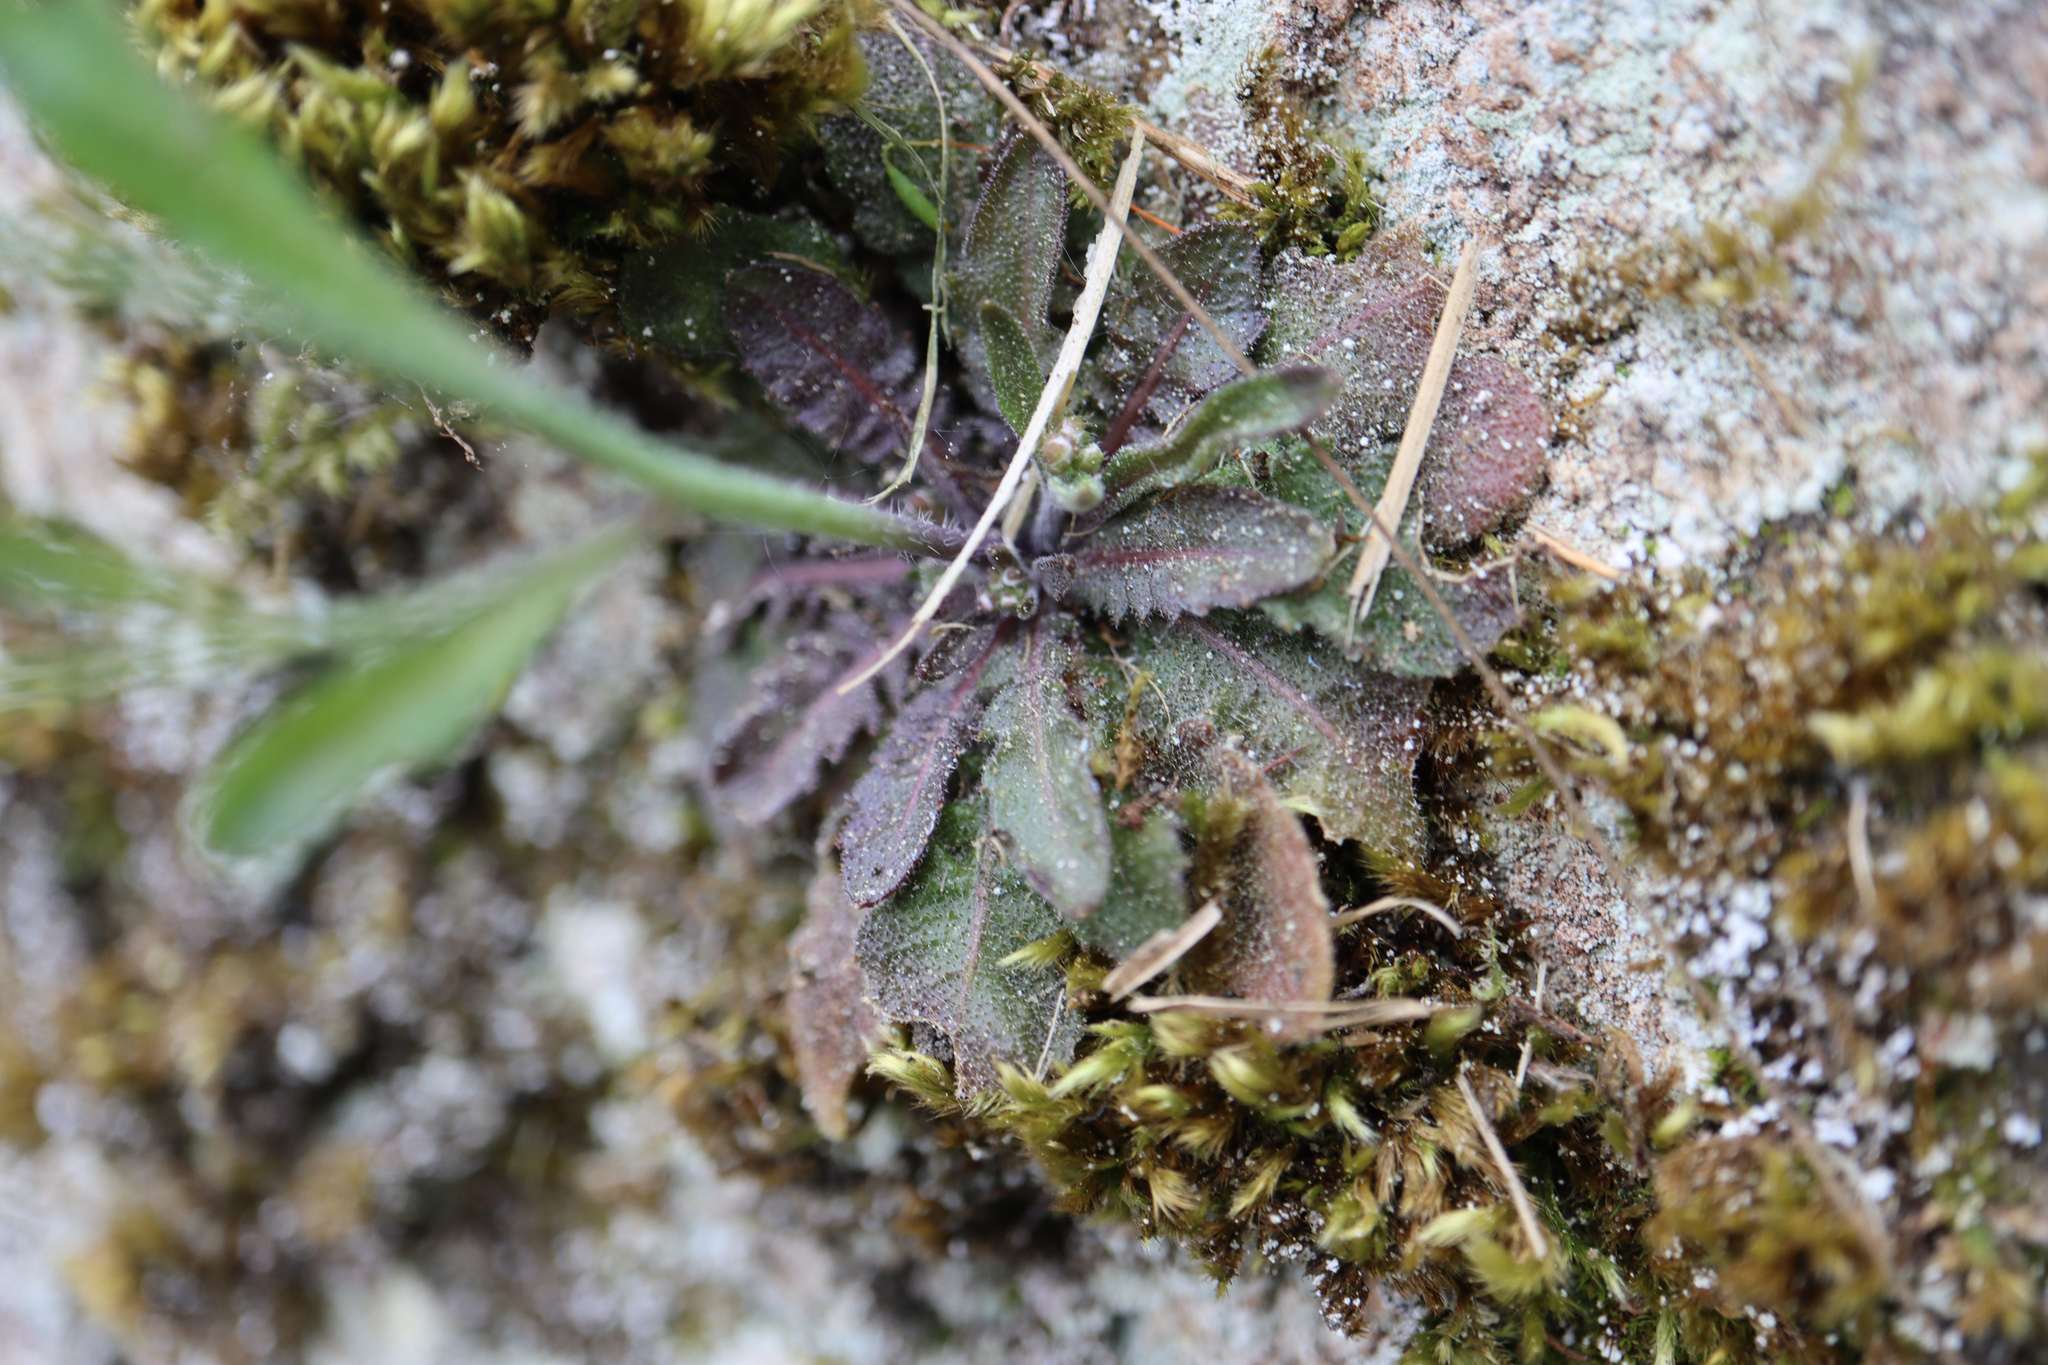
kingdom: Plantae
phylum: Tracheophyta
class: Magnoliopsida
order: Brassicales
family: Brassicaceae
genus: Arabidopsis
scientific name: Arabidopsis arenosa
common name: Sand rock-cress
